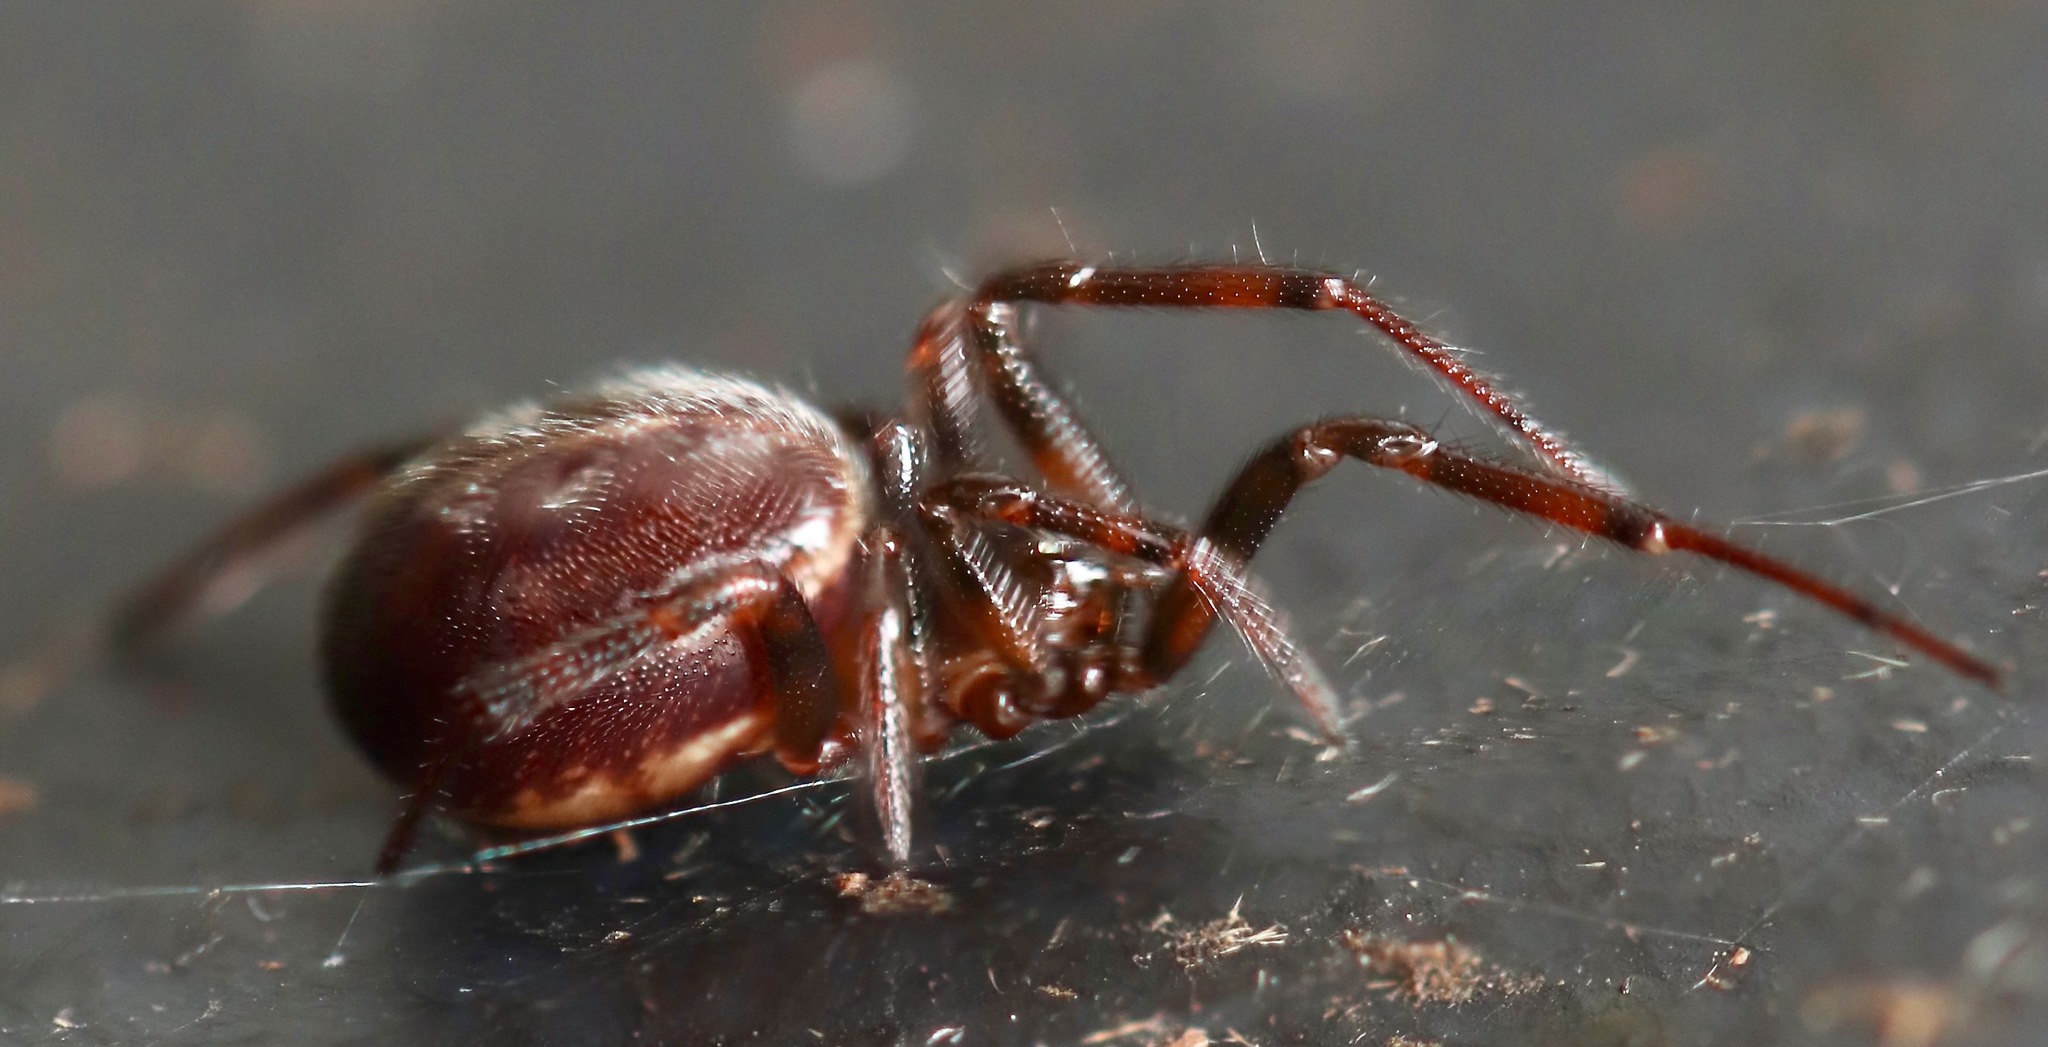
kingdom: Animalia
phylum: Arthropoda
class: Arachnida
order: Araneae
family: Theridiidae
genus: Steatoda
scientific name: Steatoda borealis
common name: Boreal combfoot
